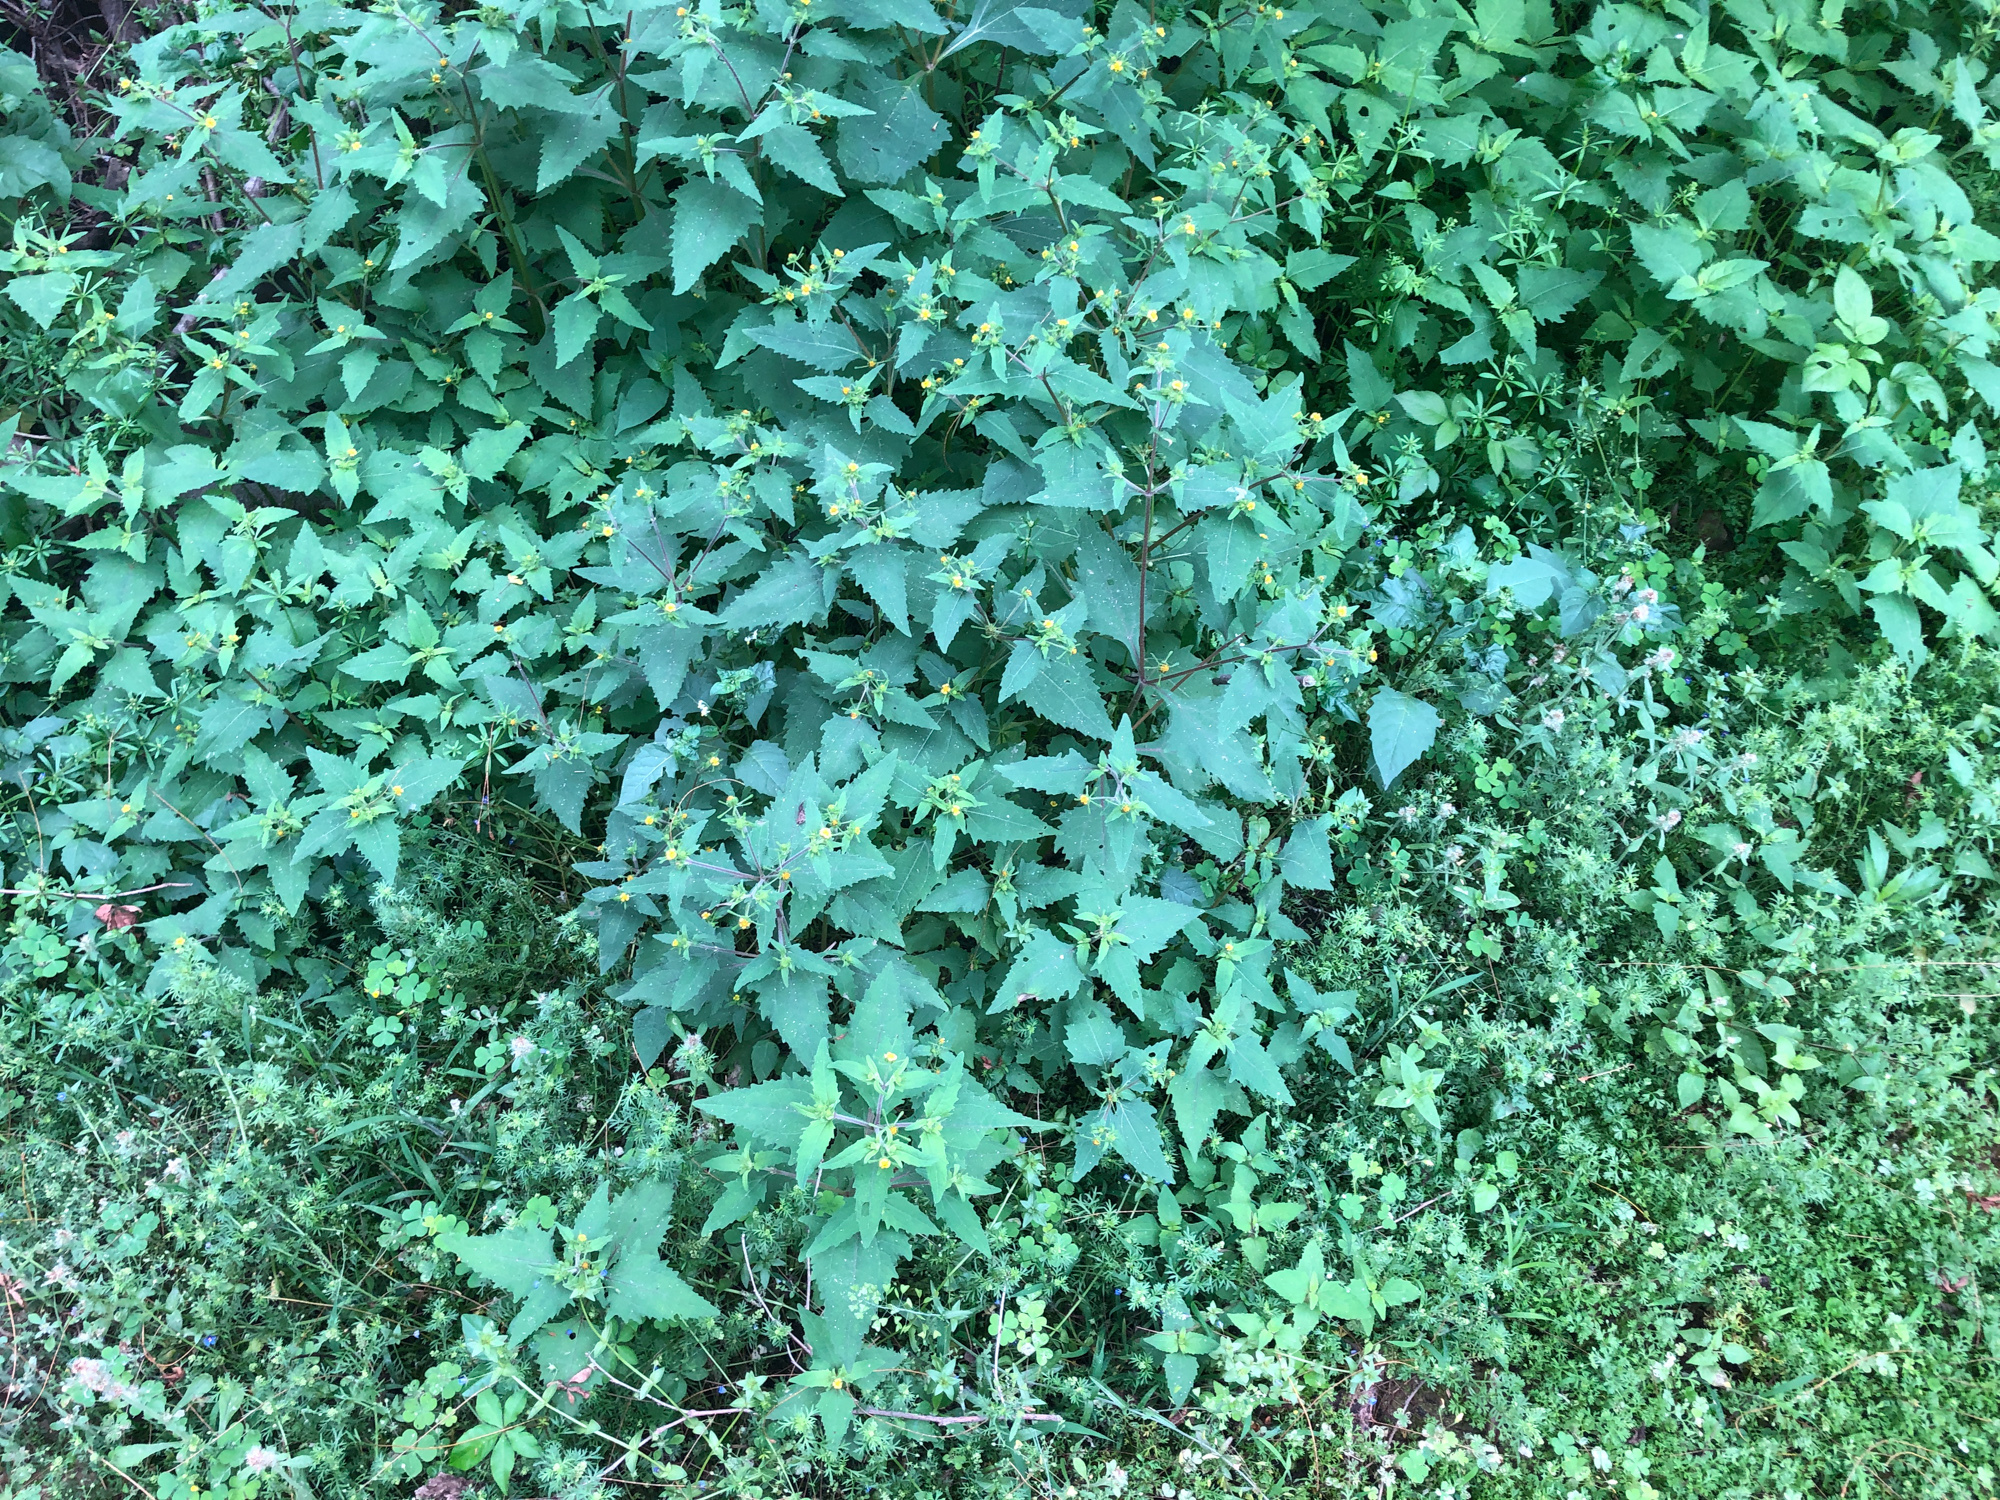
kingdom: Plantae
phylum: Tracheophyta
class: Magnoliopsida
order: Asterales
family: Asteraceae
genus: Sigesbeckia
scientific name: Sigesbeckia orientalis
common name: Eastern st paul's-wort
